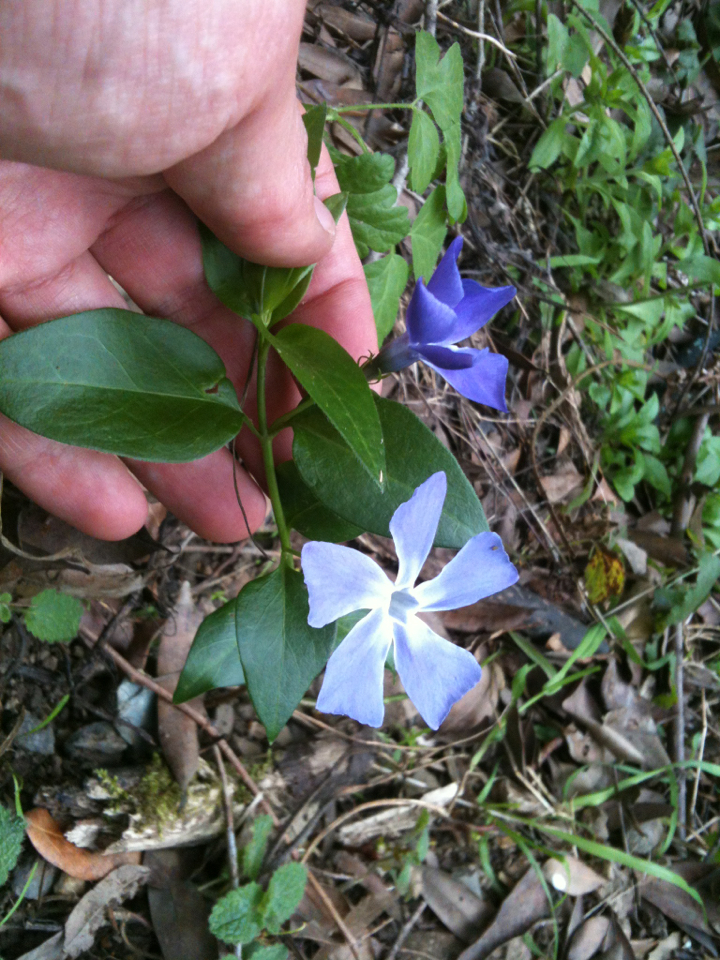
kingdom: Plantae
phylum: Tracheophyta
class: Magnoliopsida
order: Gentianales
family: Apocynaceae
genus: Vinca
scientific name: Vinca major
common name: Greater periwinkle
